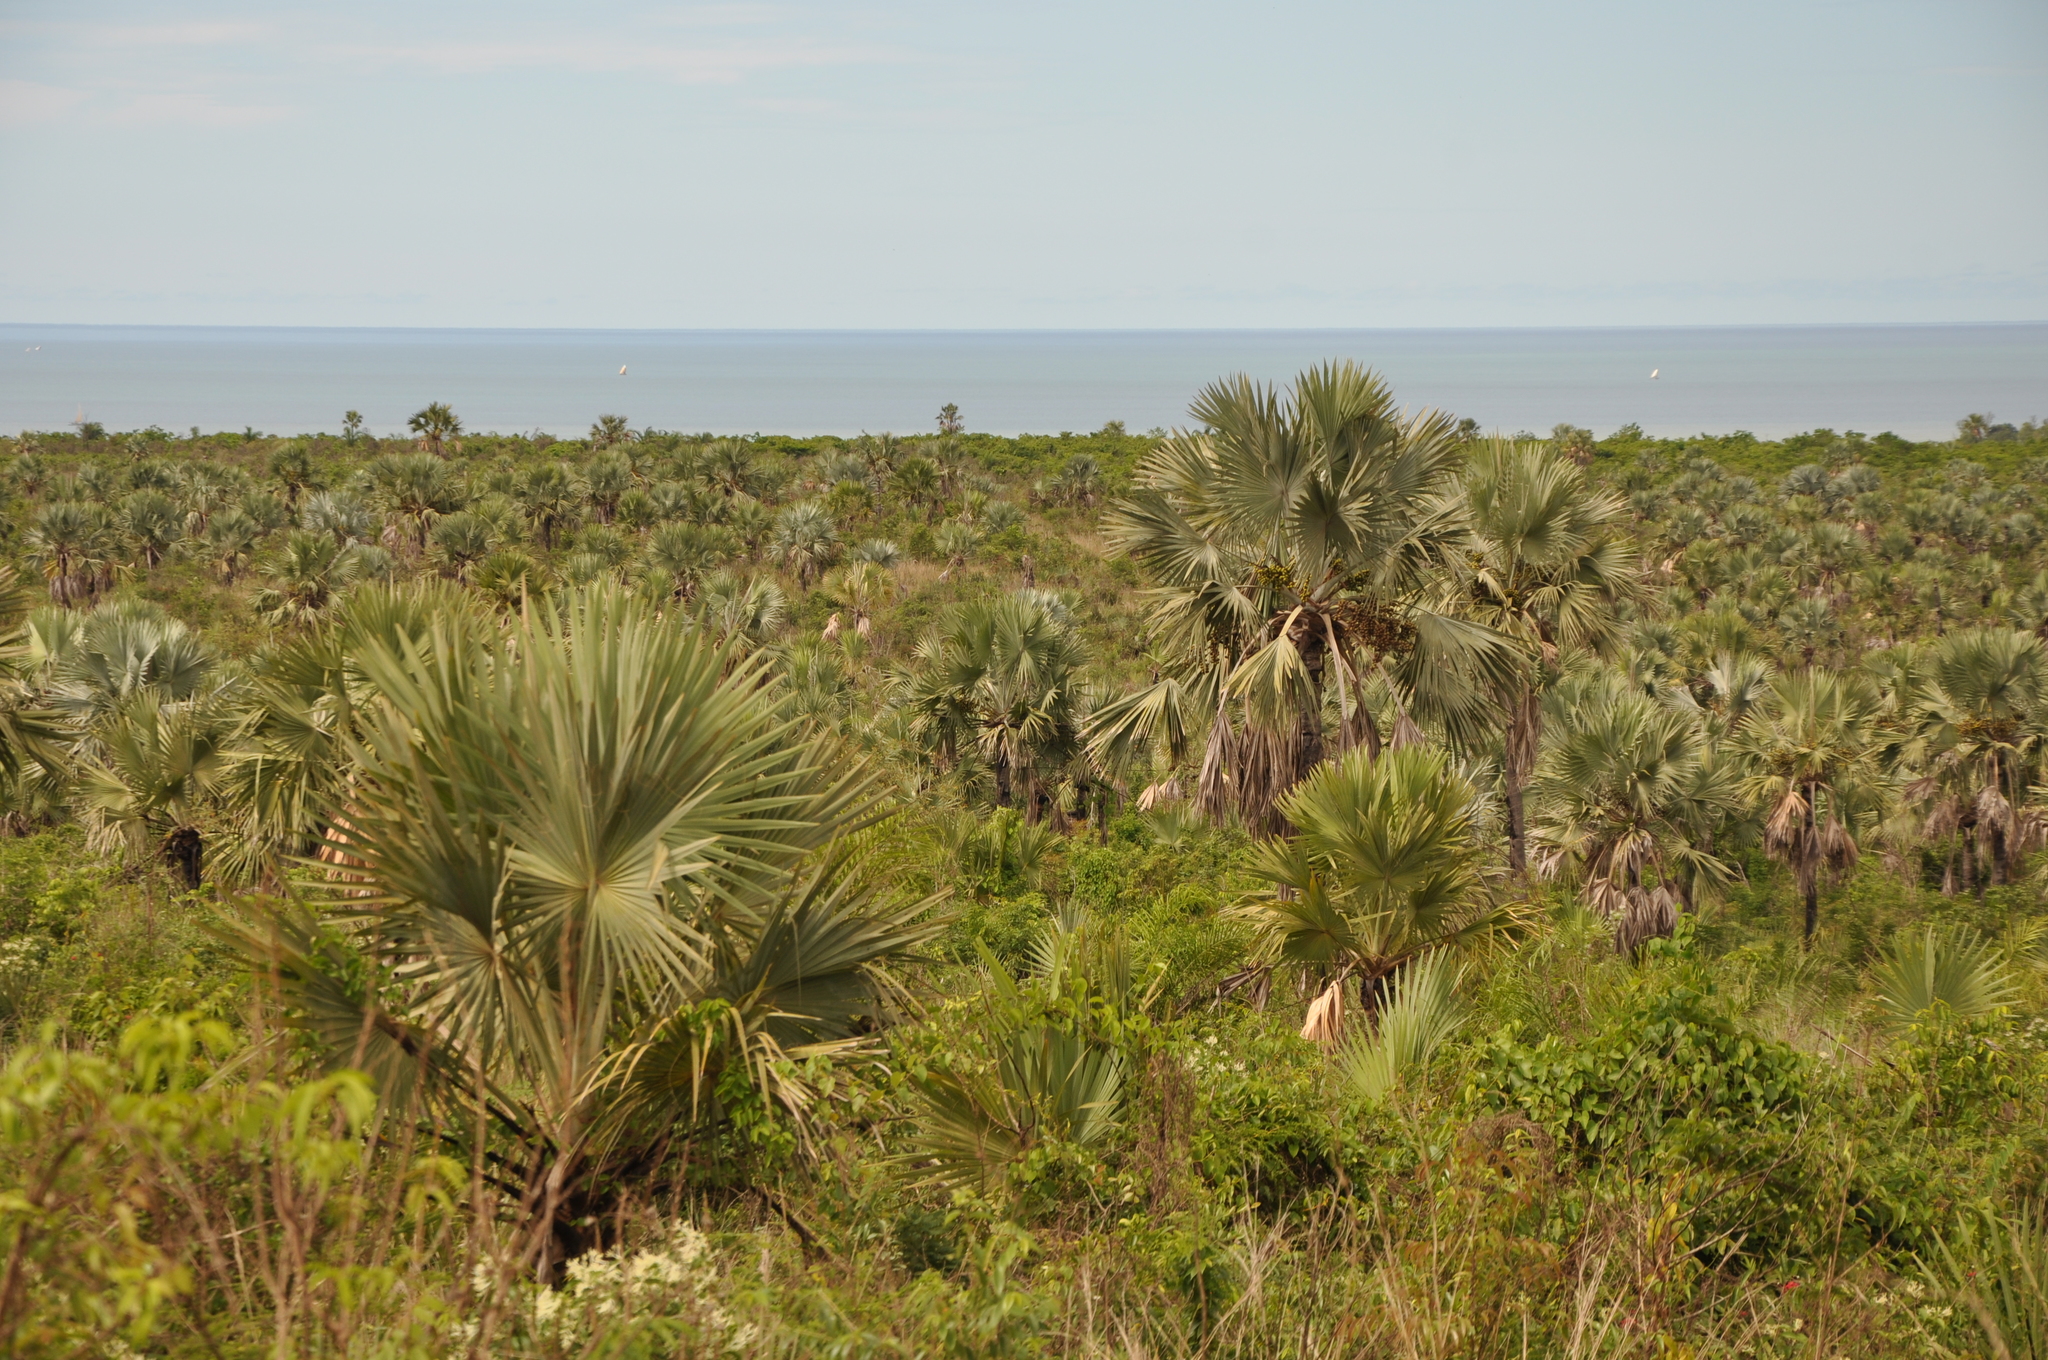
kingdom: Plantae
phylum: Tracheophyta
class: Liliopsida
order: Arecales
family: Arecaceae
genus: Bismarckia
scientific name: Bismarckia nobilis
